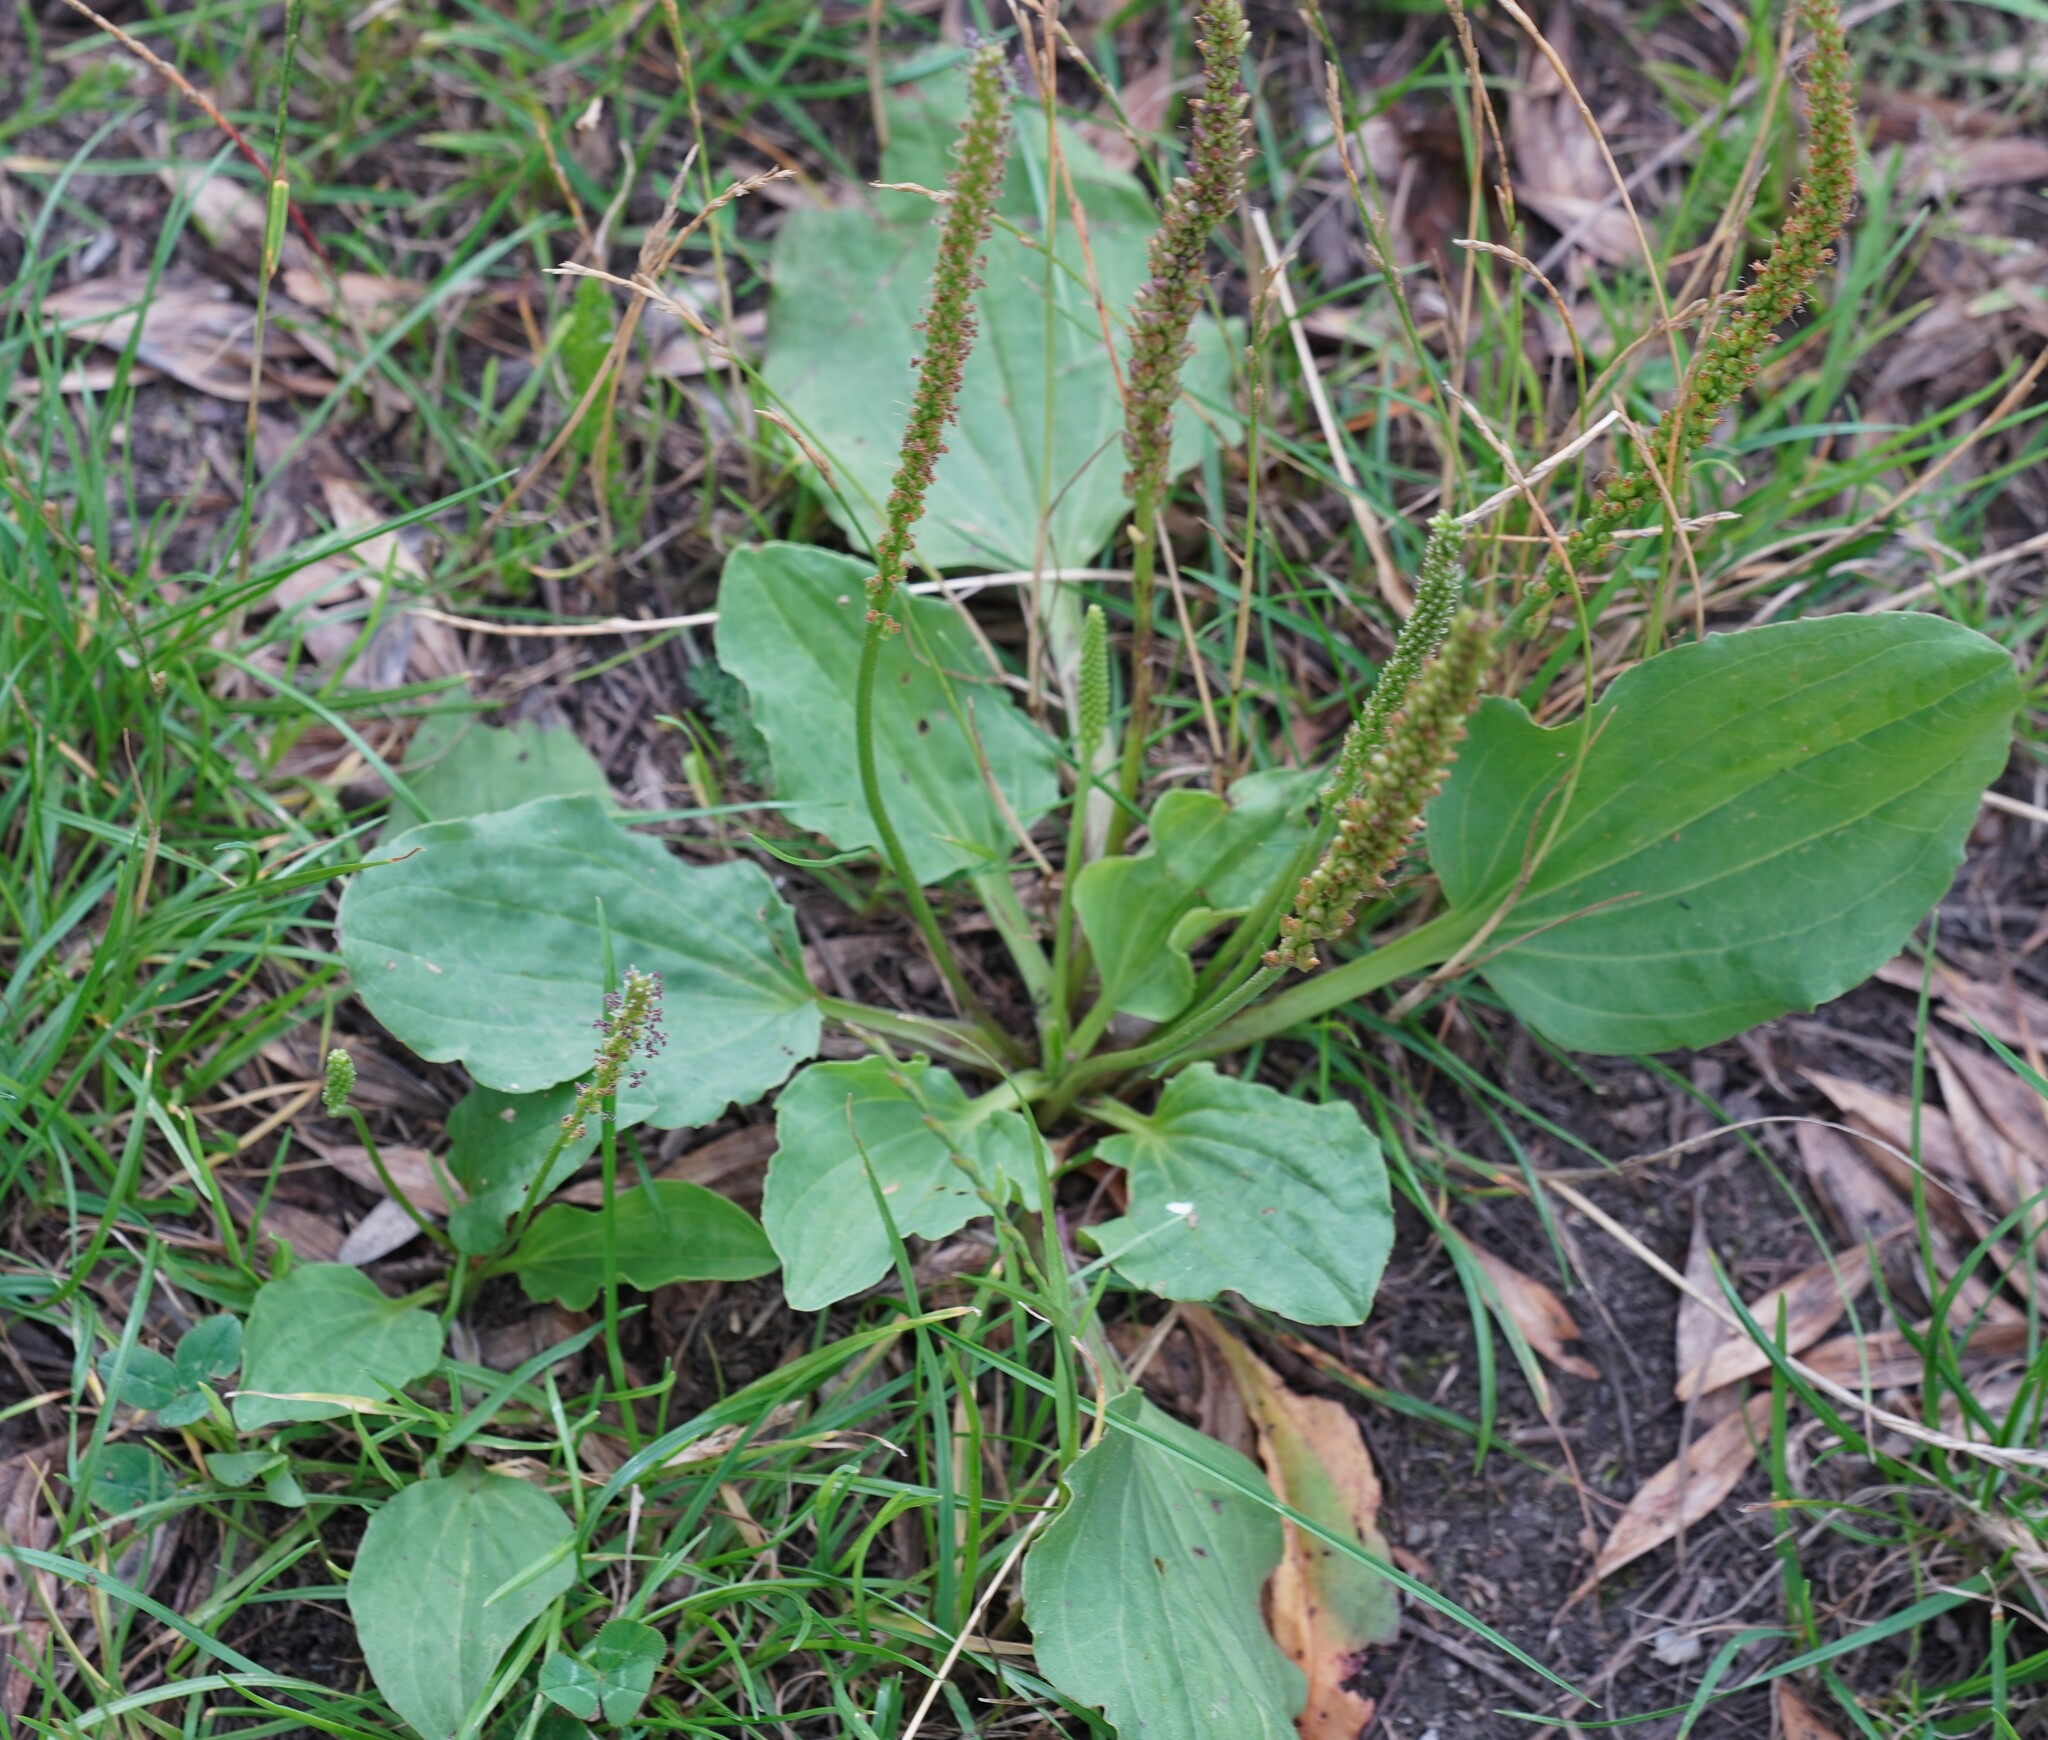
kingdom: Plantae
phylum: Tracheophyta
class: Magnoliopsida
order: Lamiales
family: Plantaginaceae
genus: Plantago
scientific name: Plantago major
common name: Common plantain
